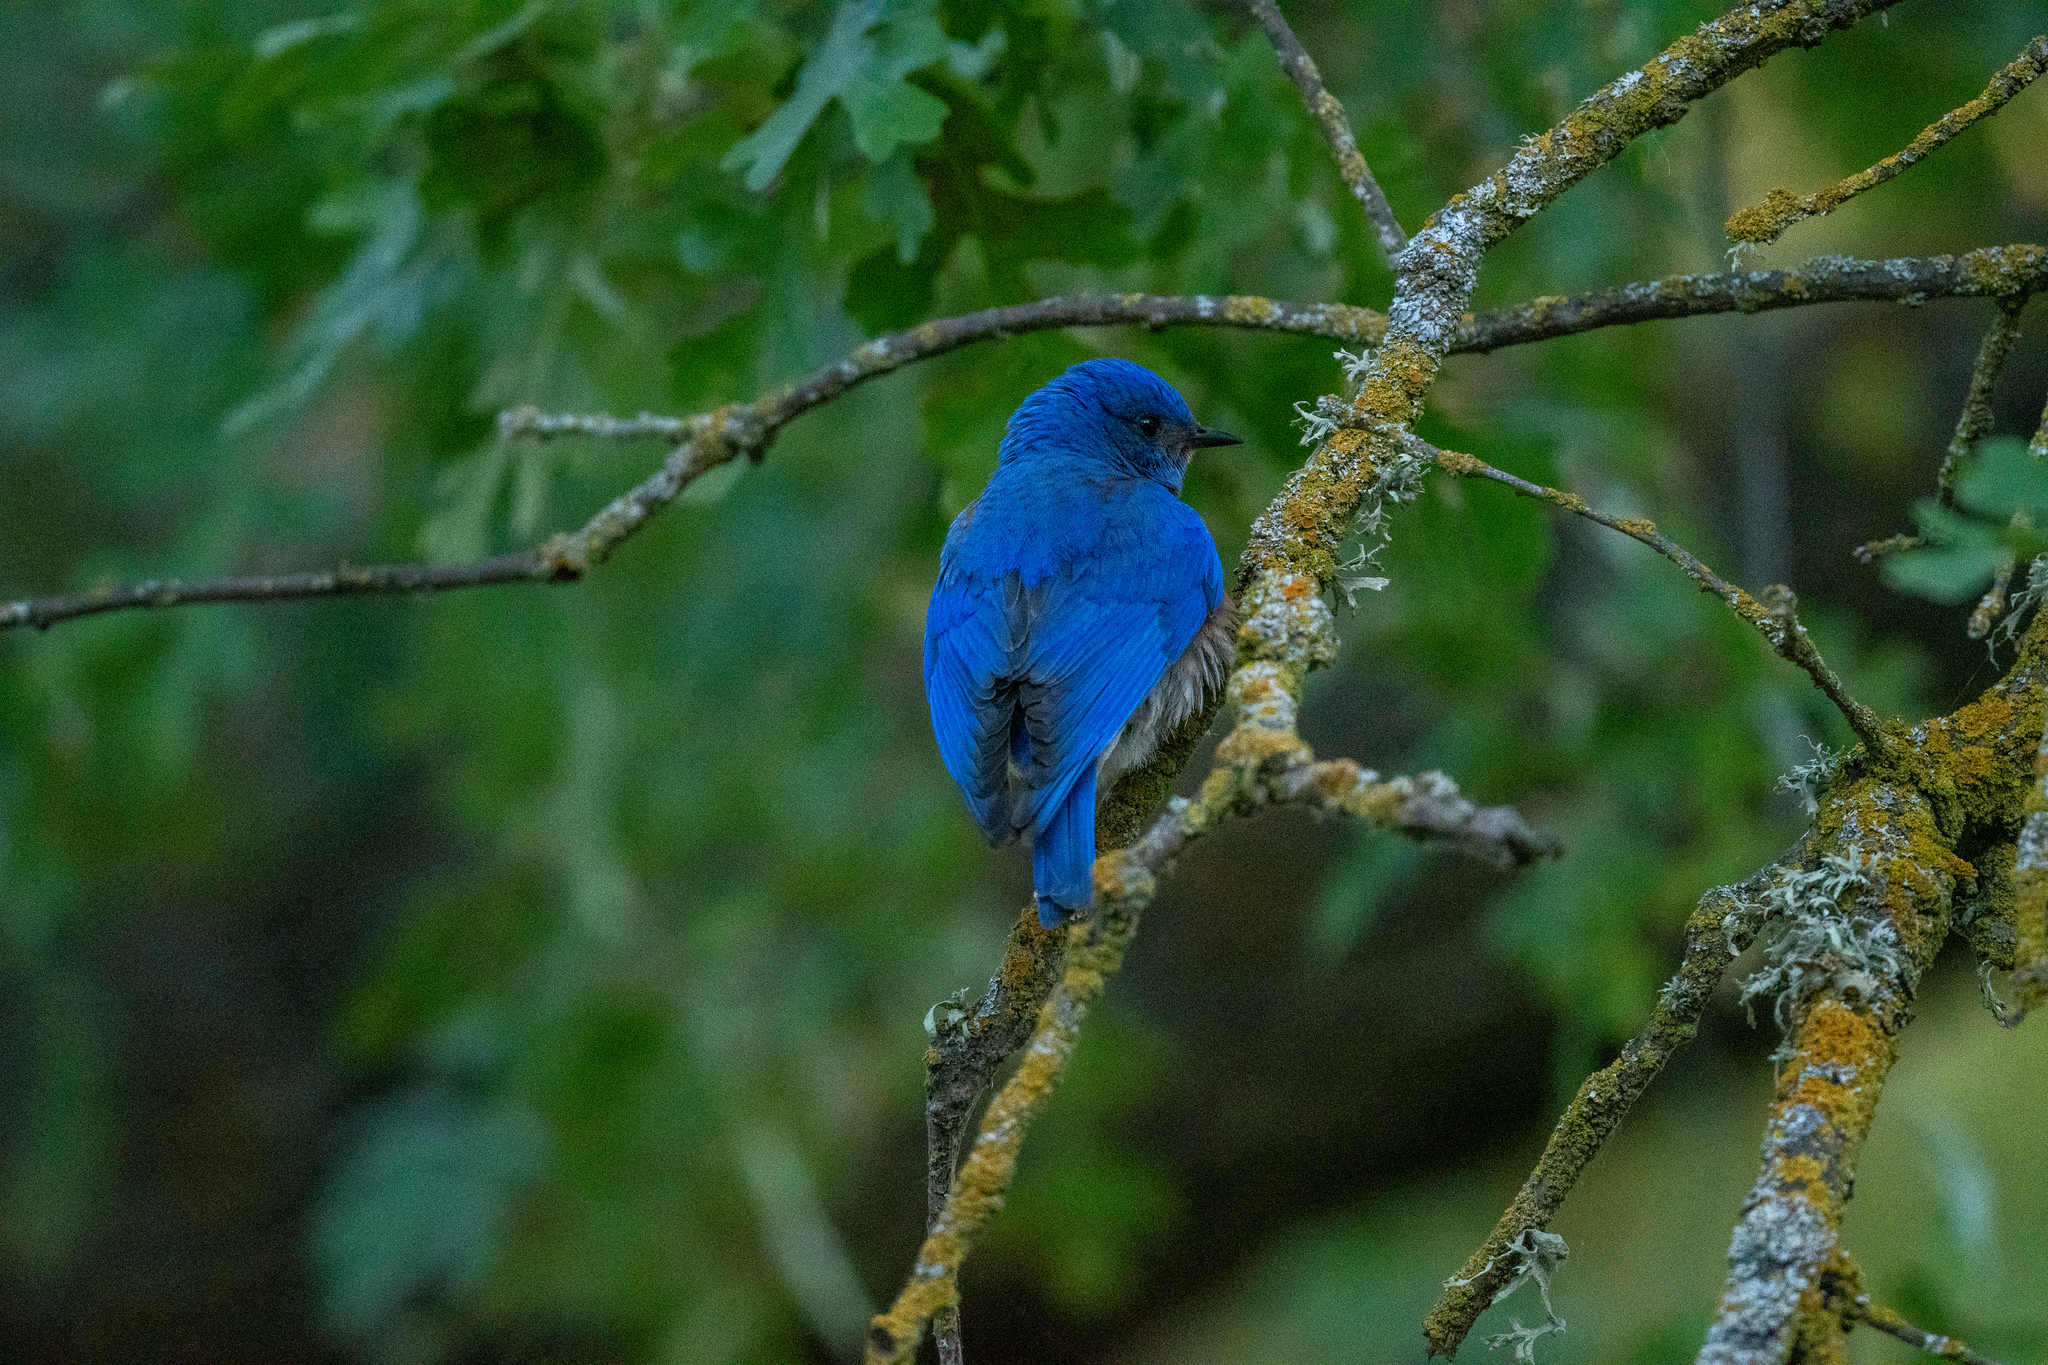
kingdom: Animalia
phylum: Chordata
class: Aves
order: Passeriformes
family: Turdidae
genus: Sialia
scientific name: Sialia mexicana
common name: Western bluebird
